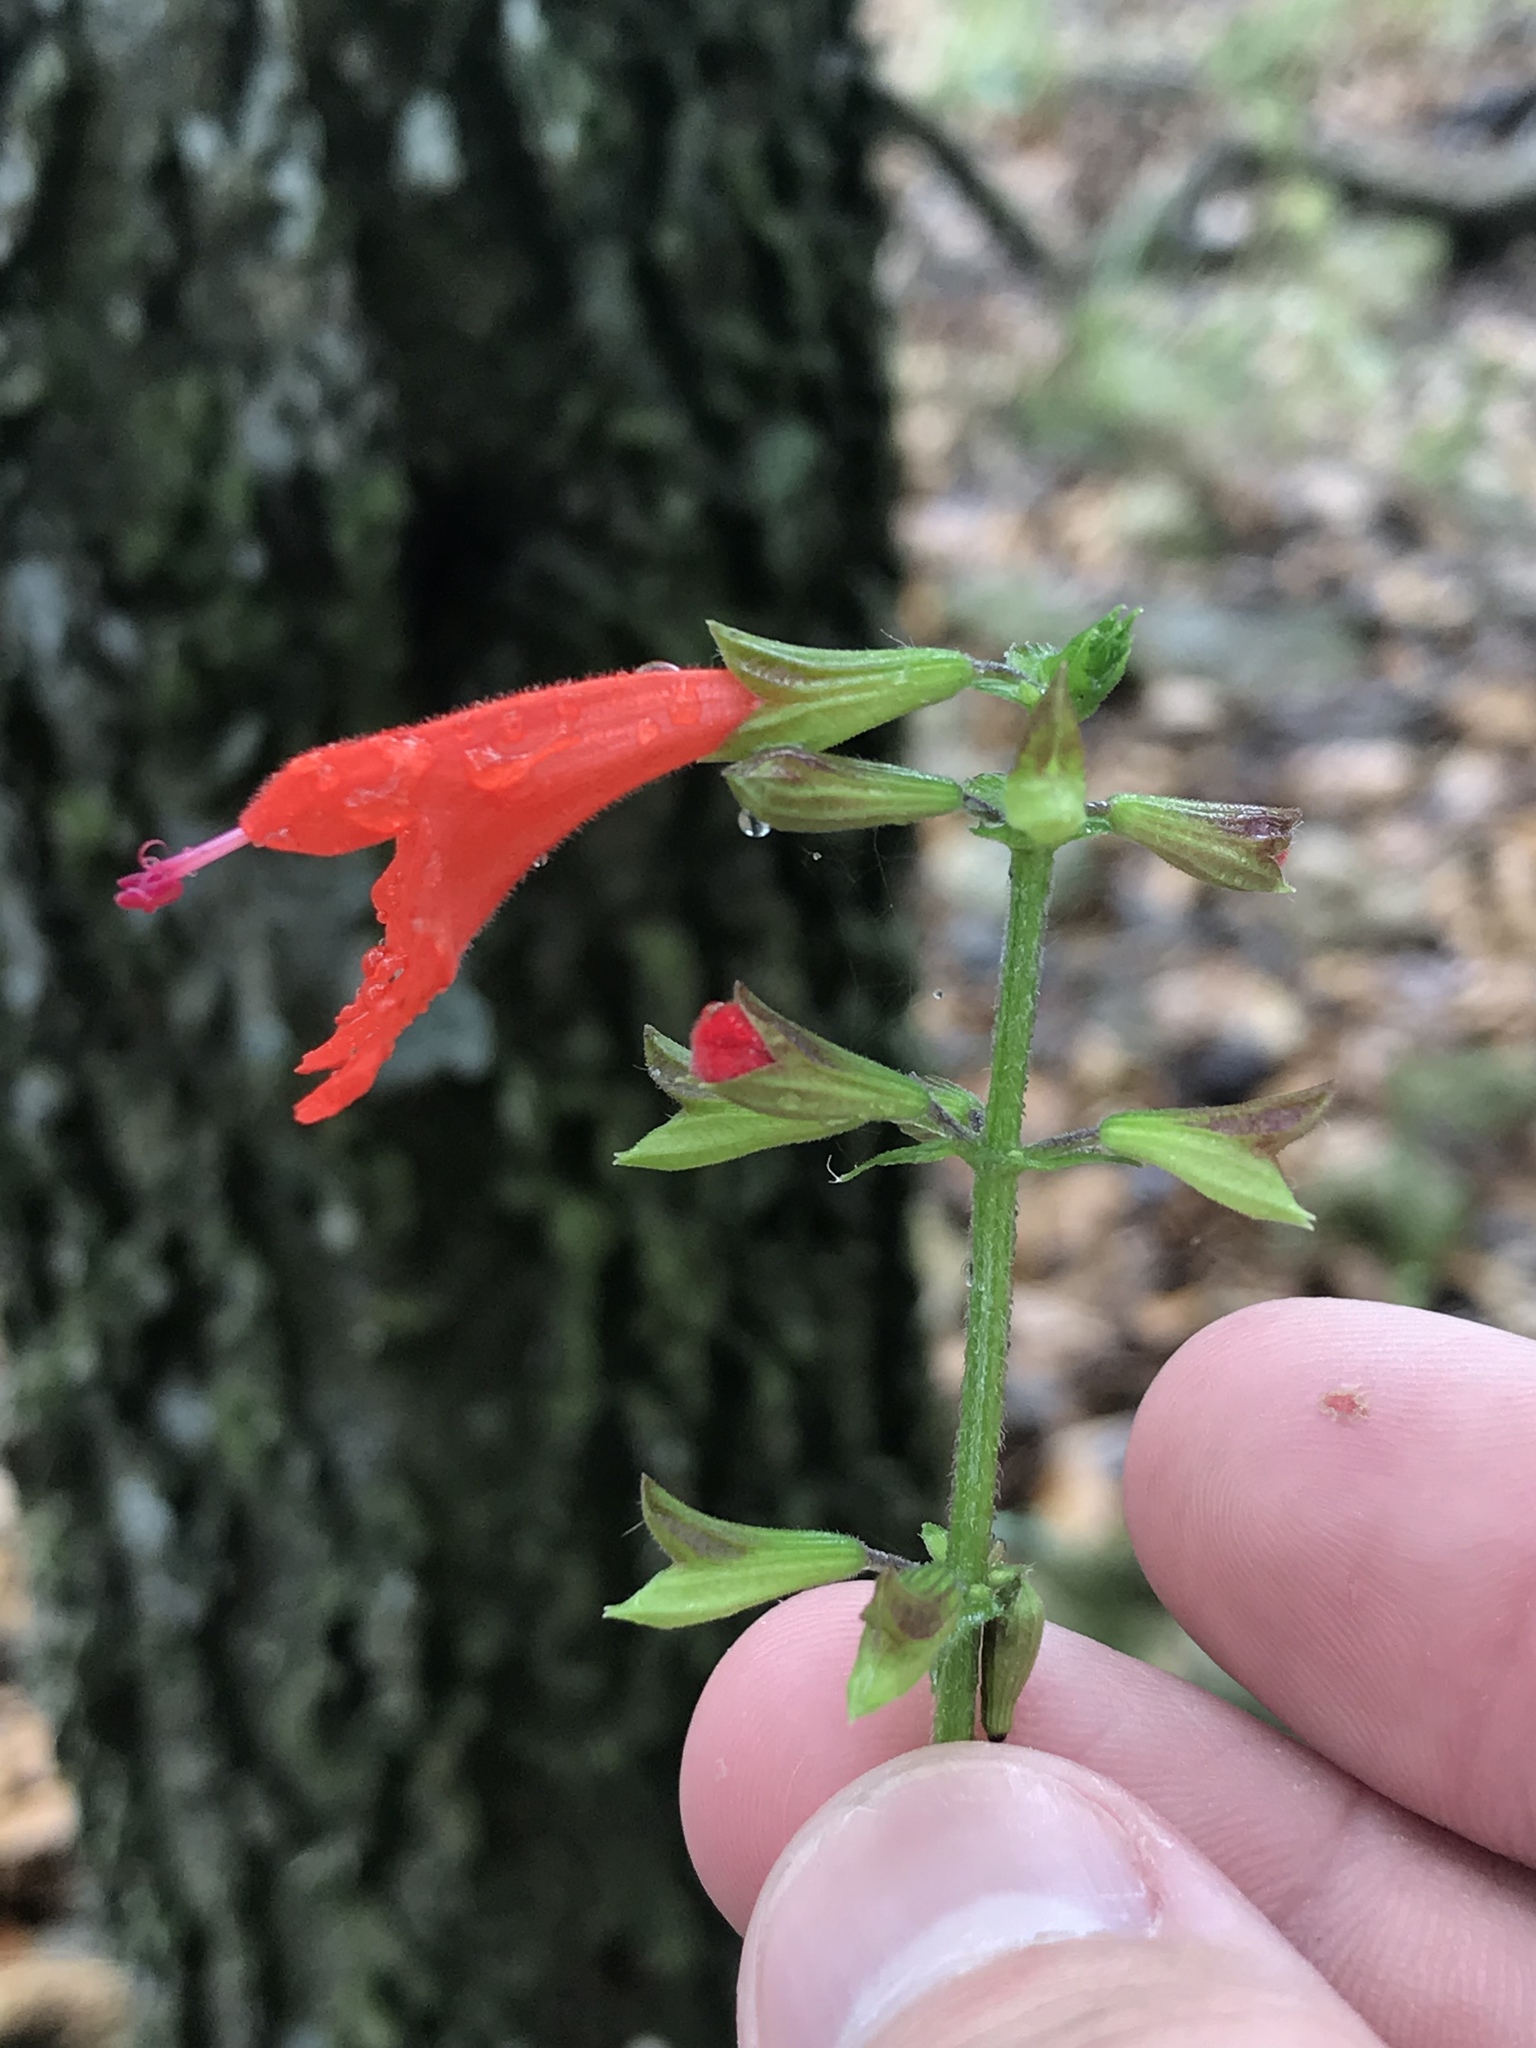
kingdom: Plantae
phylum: Tracheophyta
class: Magnoliopsida
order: Lamiales
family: Lamiaceae
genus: Salvia
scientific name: Salvia coccinea
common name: Blood sage
